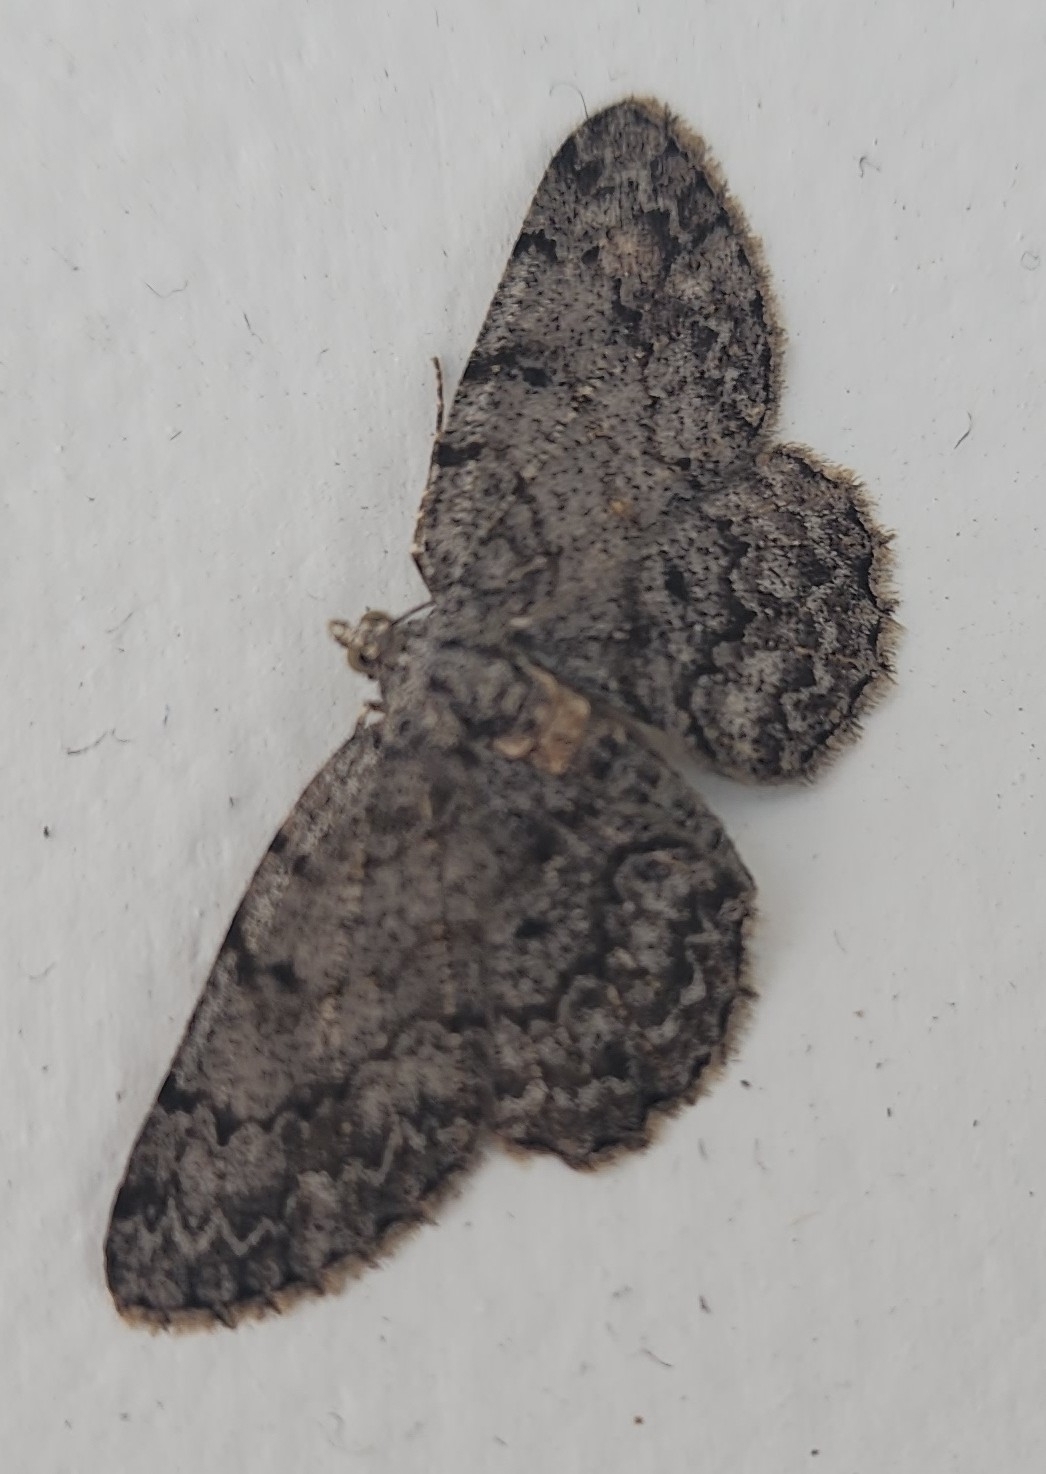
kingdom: Animalia
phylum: Arthropoda
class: Insecta
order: Lepidoptera
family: Geometridae
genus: Protoboarmia
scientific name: Protoboarmia porcelaria
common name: Porcelain gray
